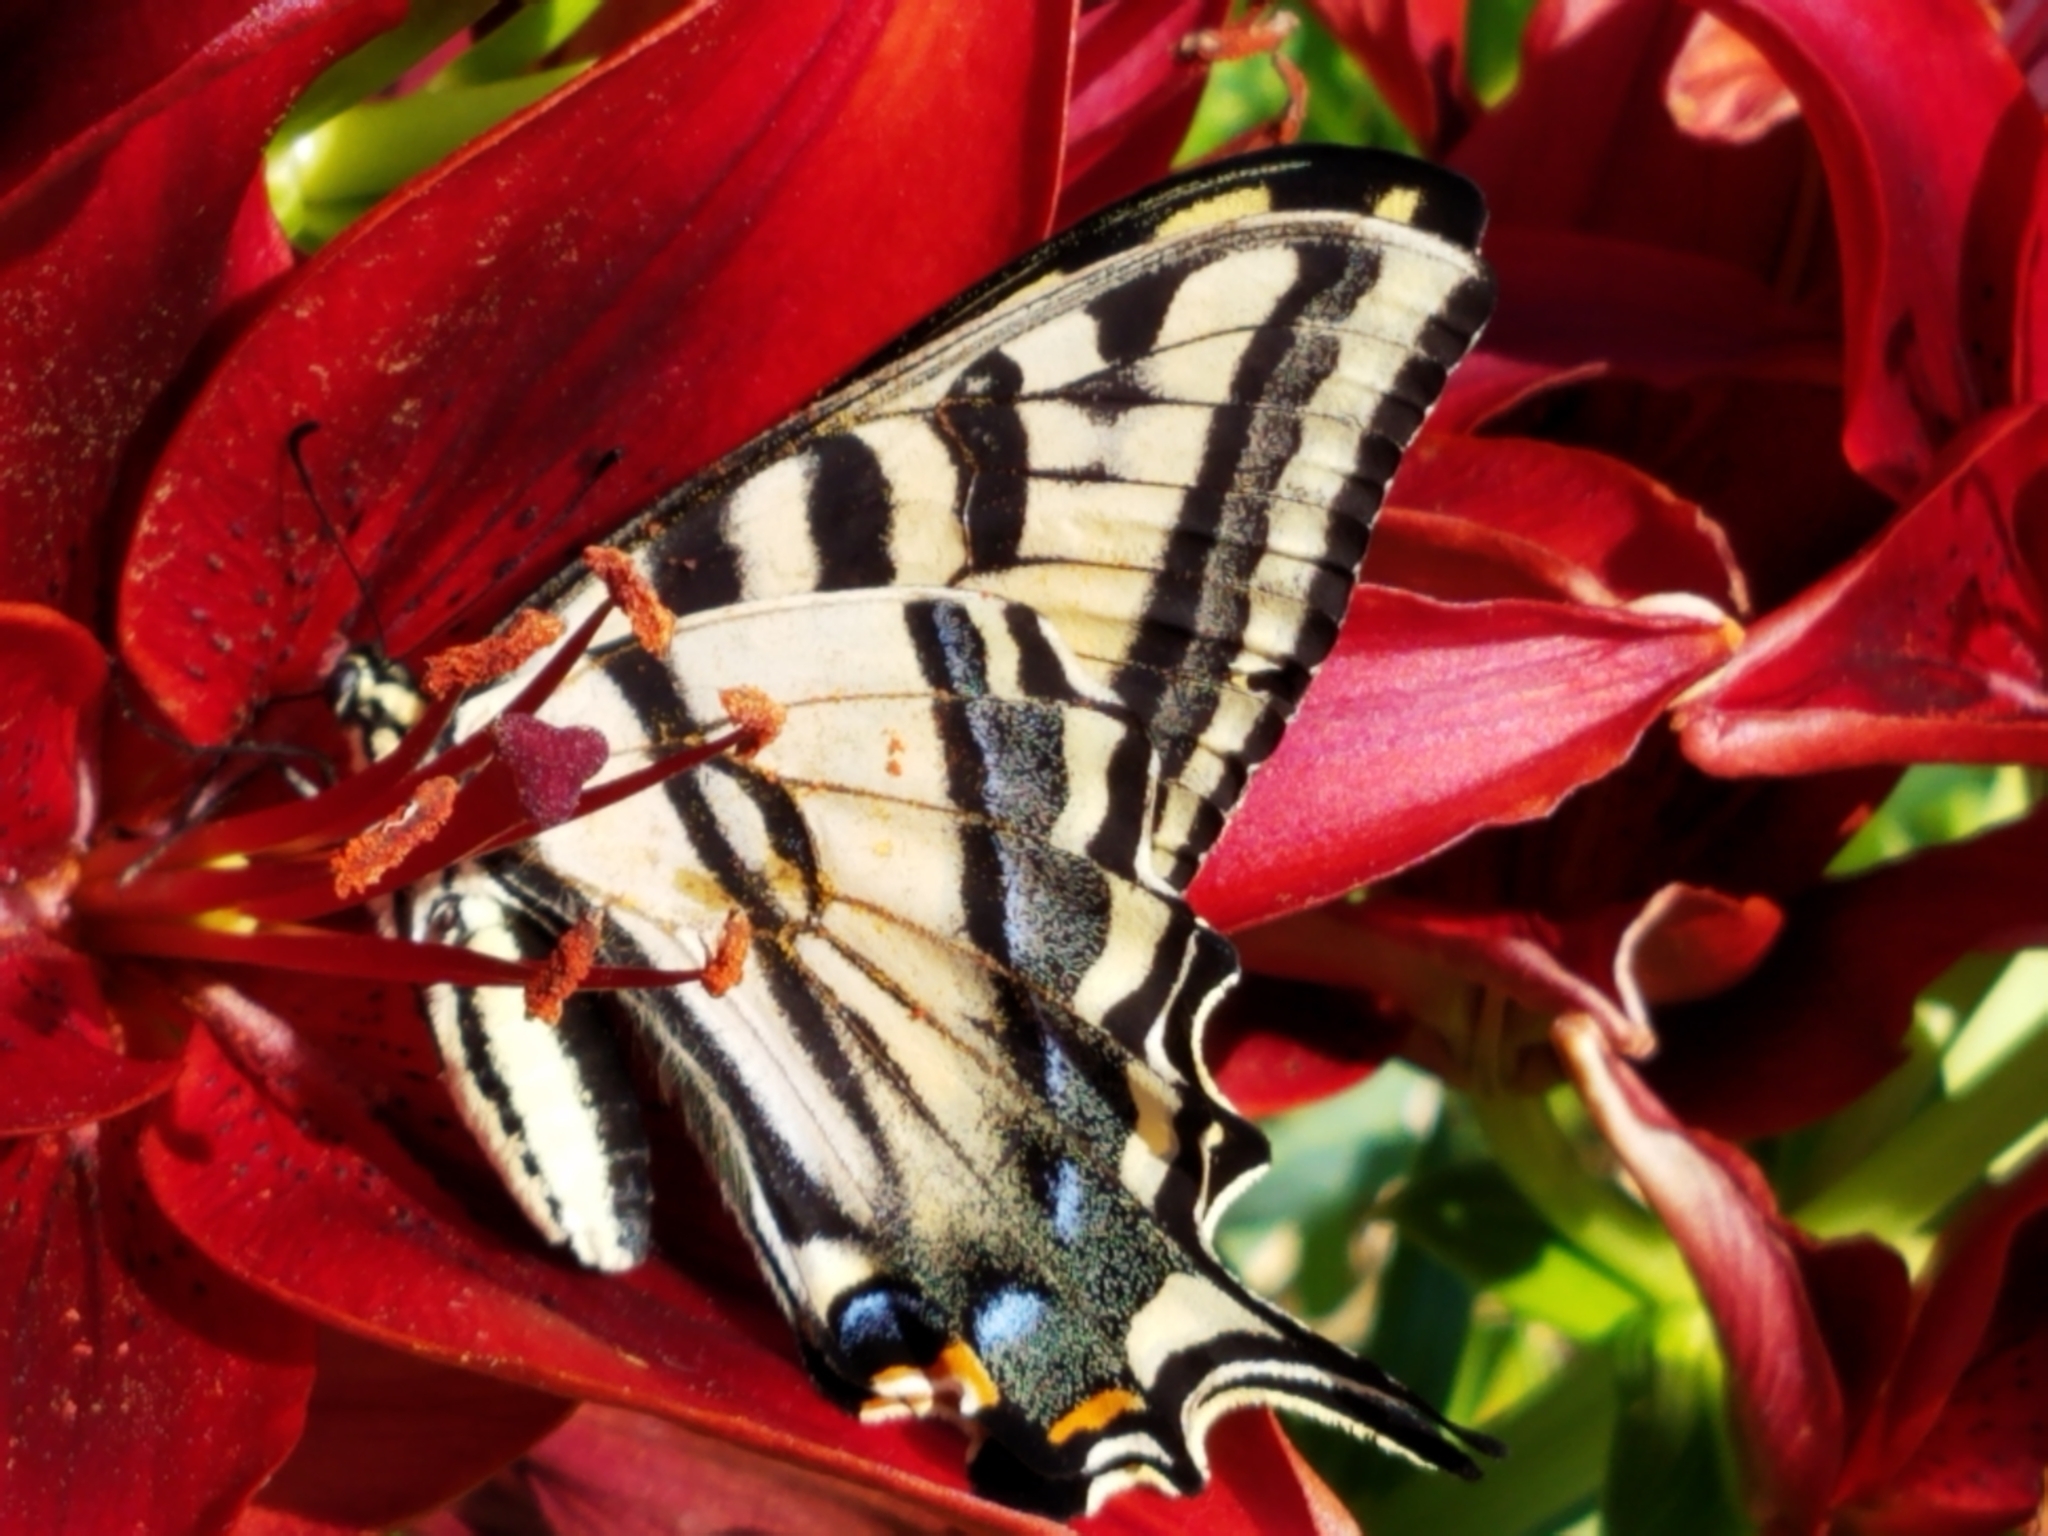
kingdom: Animalia
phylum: Arthropoda
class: Insecta
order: Lepidoptera
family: Papilionidae
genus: Papilio
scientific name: Papilio rutulus
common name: Western tiger swallowtail
